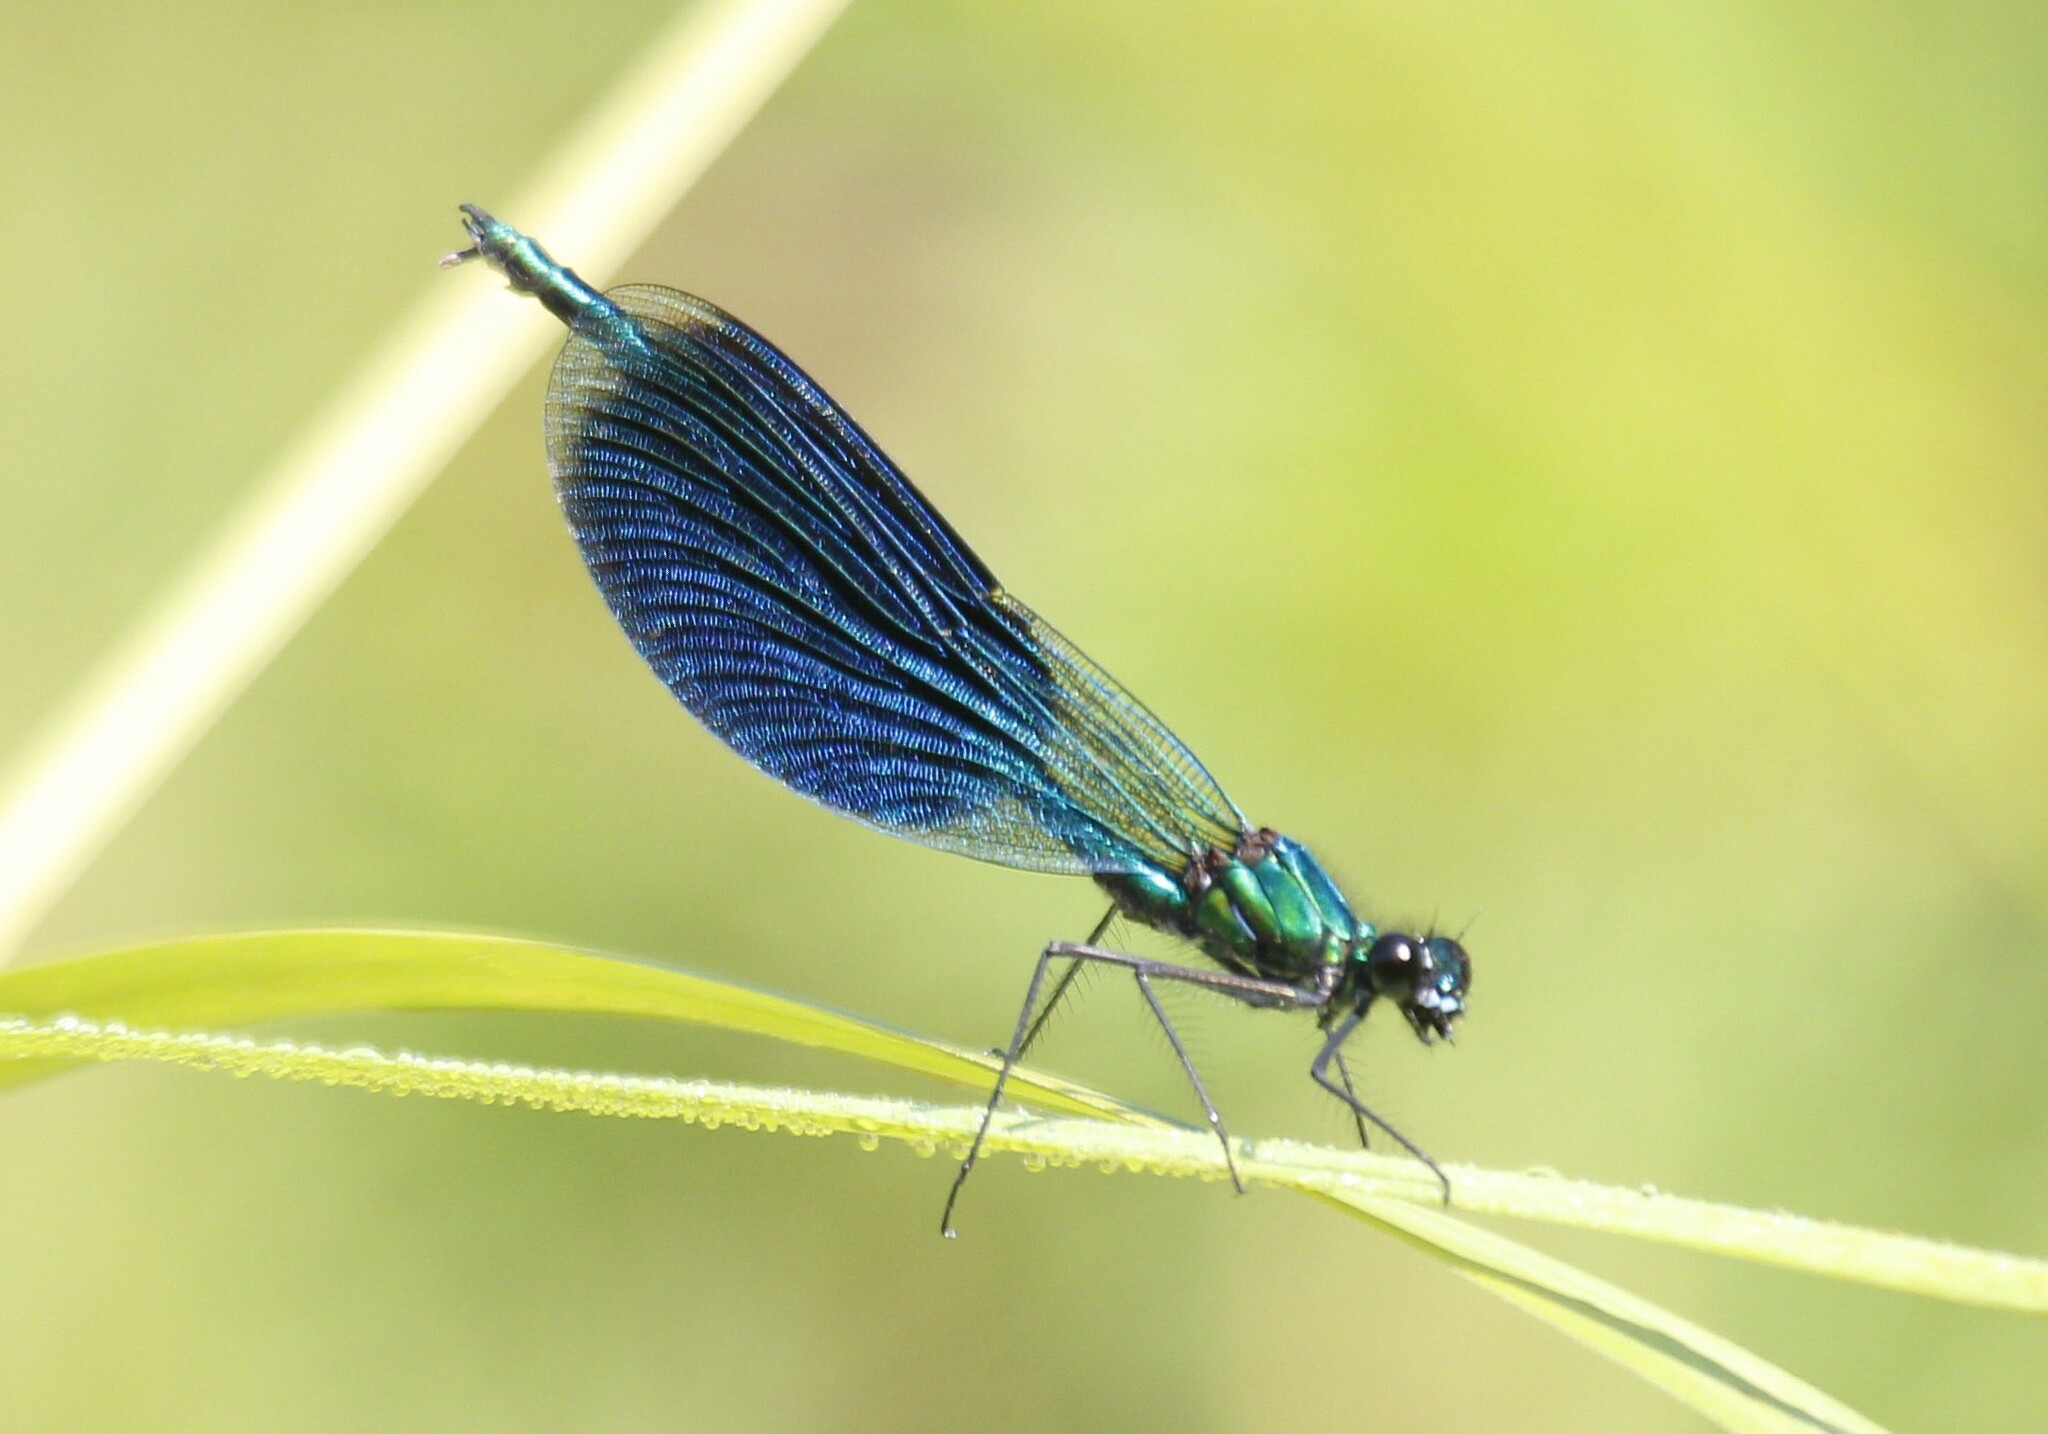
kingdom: Animalia
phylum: Arthropoda
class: Insecta
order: Odonata
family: Calopterygidae
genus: Calopteryx
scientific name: Calopteryx splendens
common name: Banded demoiselle
